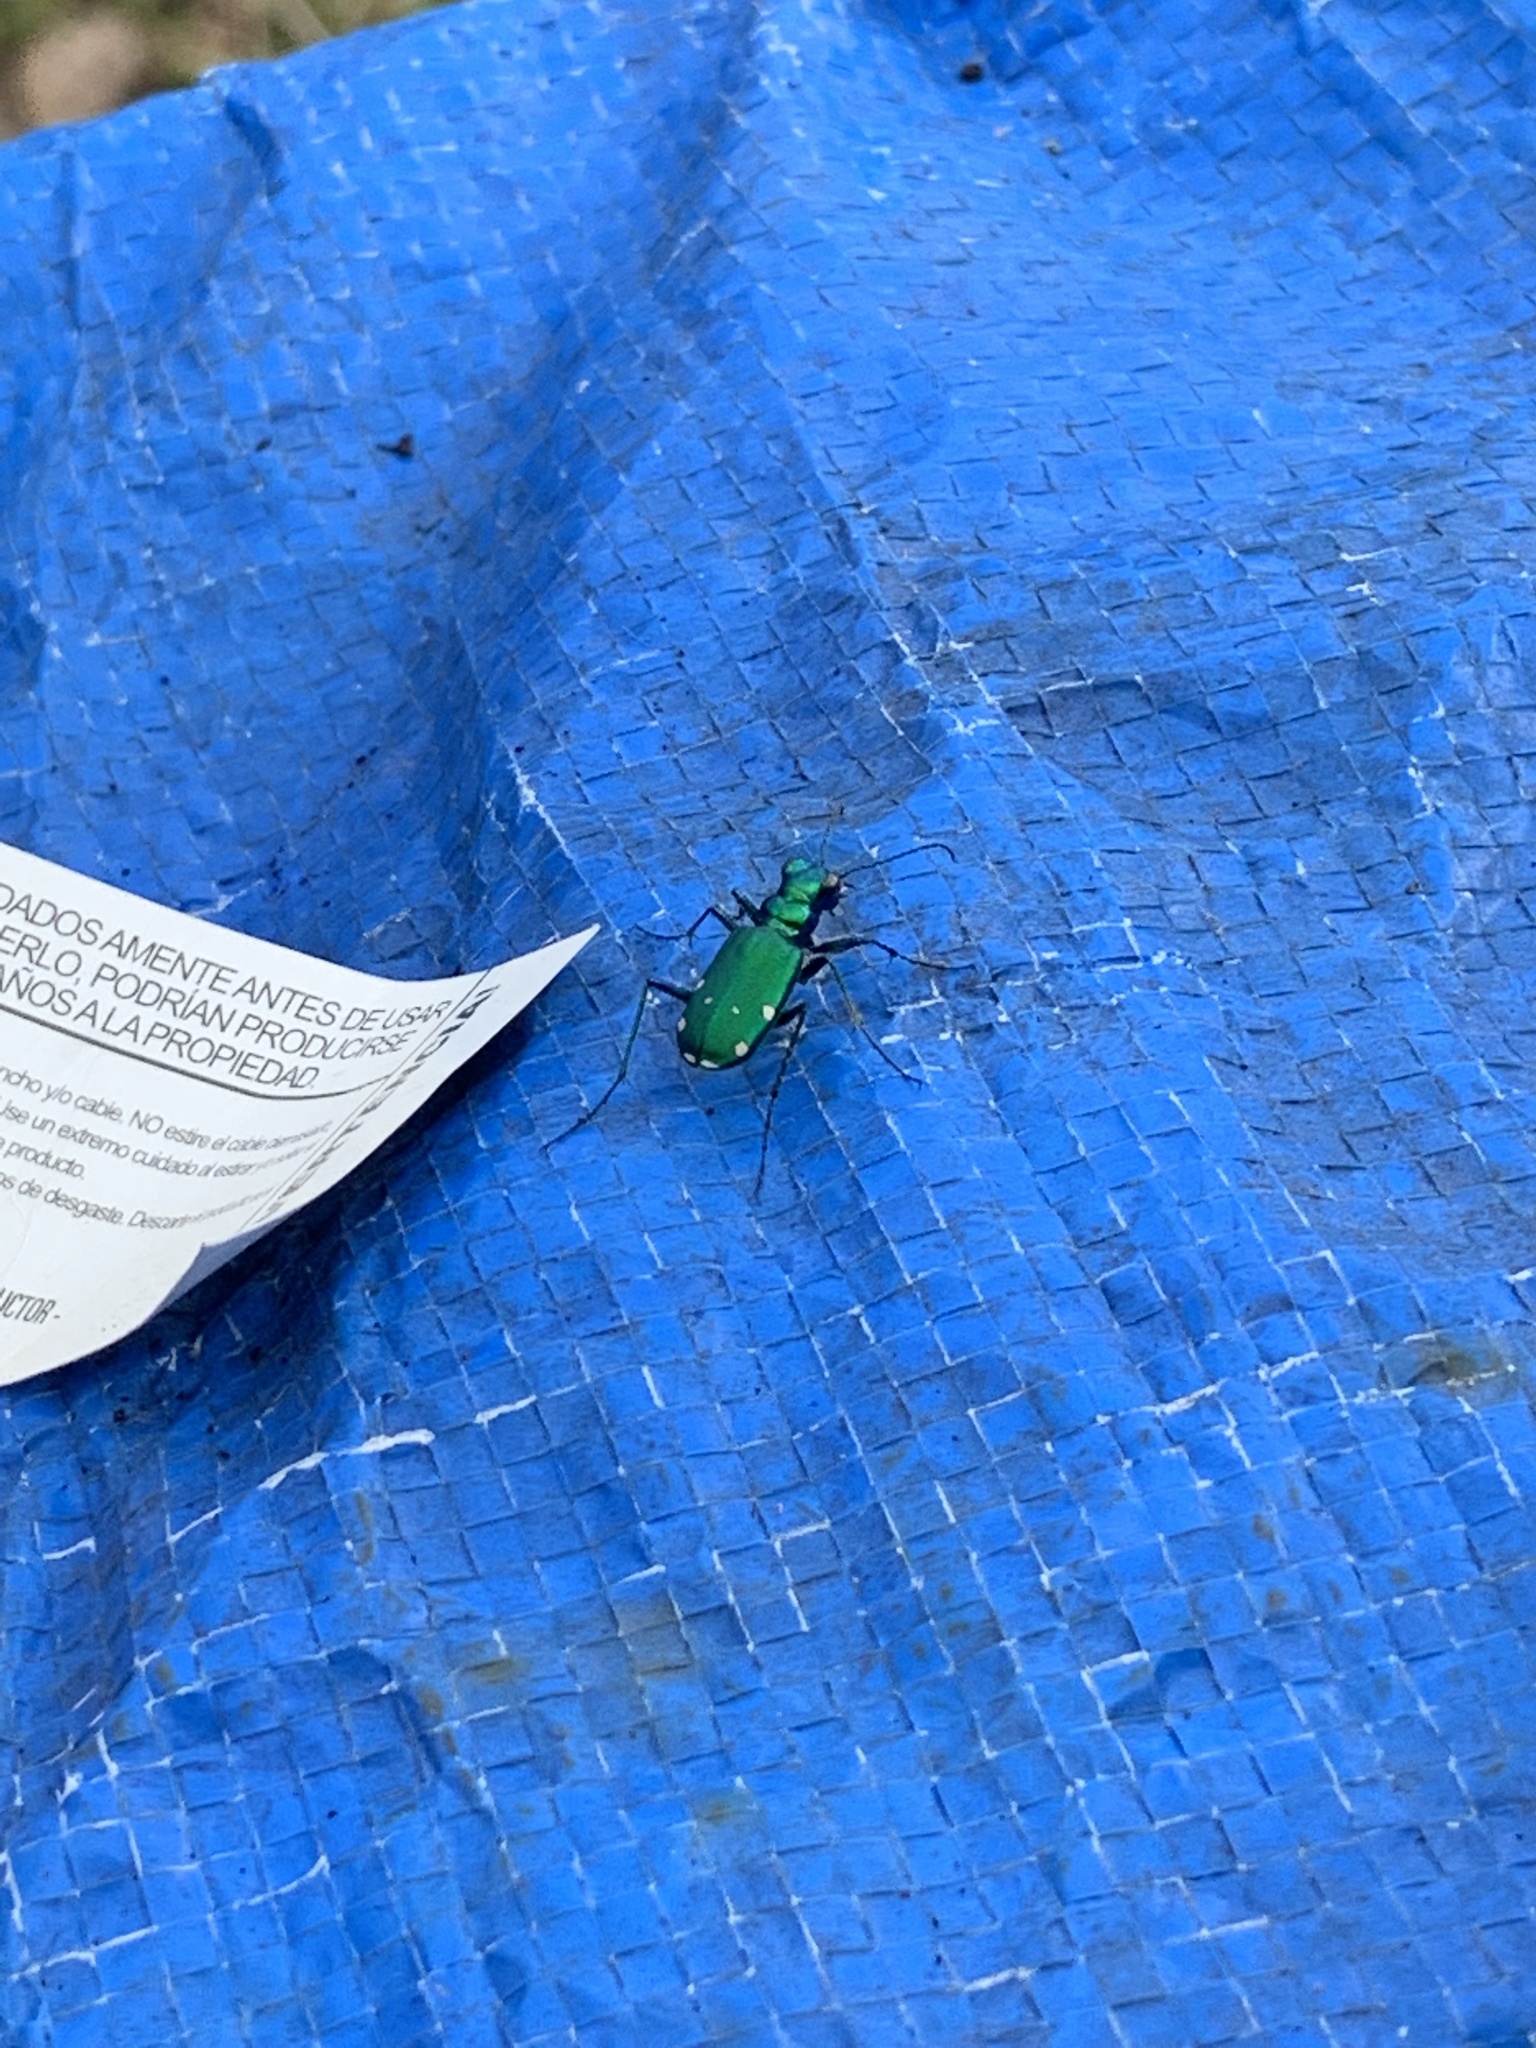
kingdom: Animalia
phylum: Arthropoda
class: Insecta
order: Coleoptera
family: Carabidae
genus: Cicindela
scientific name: Cicindela sexguttata
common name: Six-spotted tiger beetle
